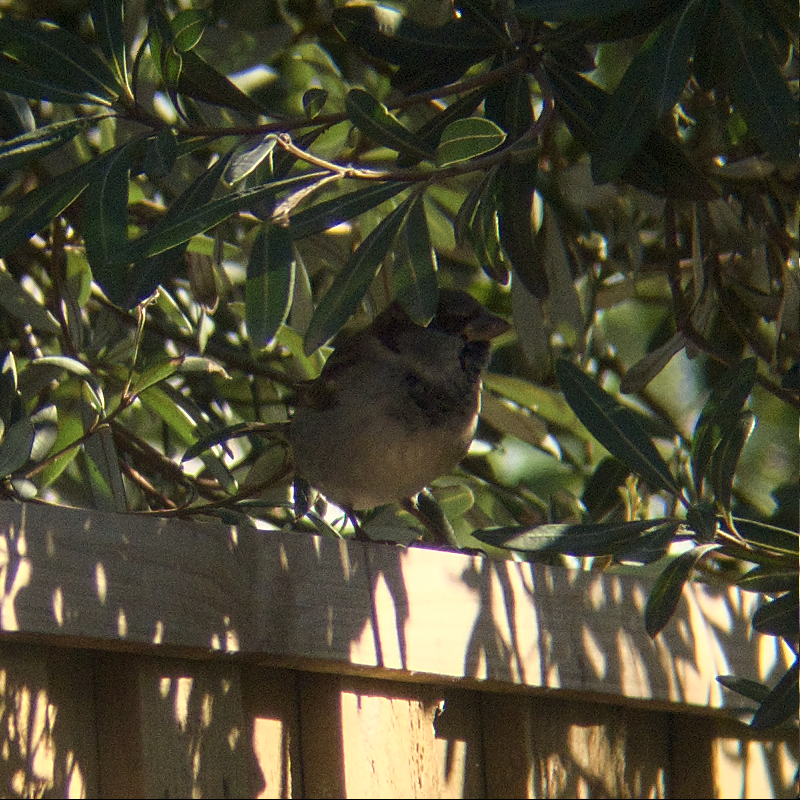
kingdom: Animalia
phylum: Chordata
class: Aves
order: Passeriformes
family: Passeridae
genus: Passer
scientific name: Passer domesticus
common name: House sparrow
